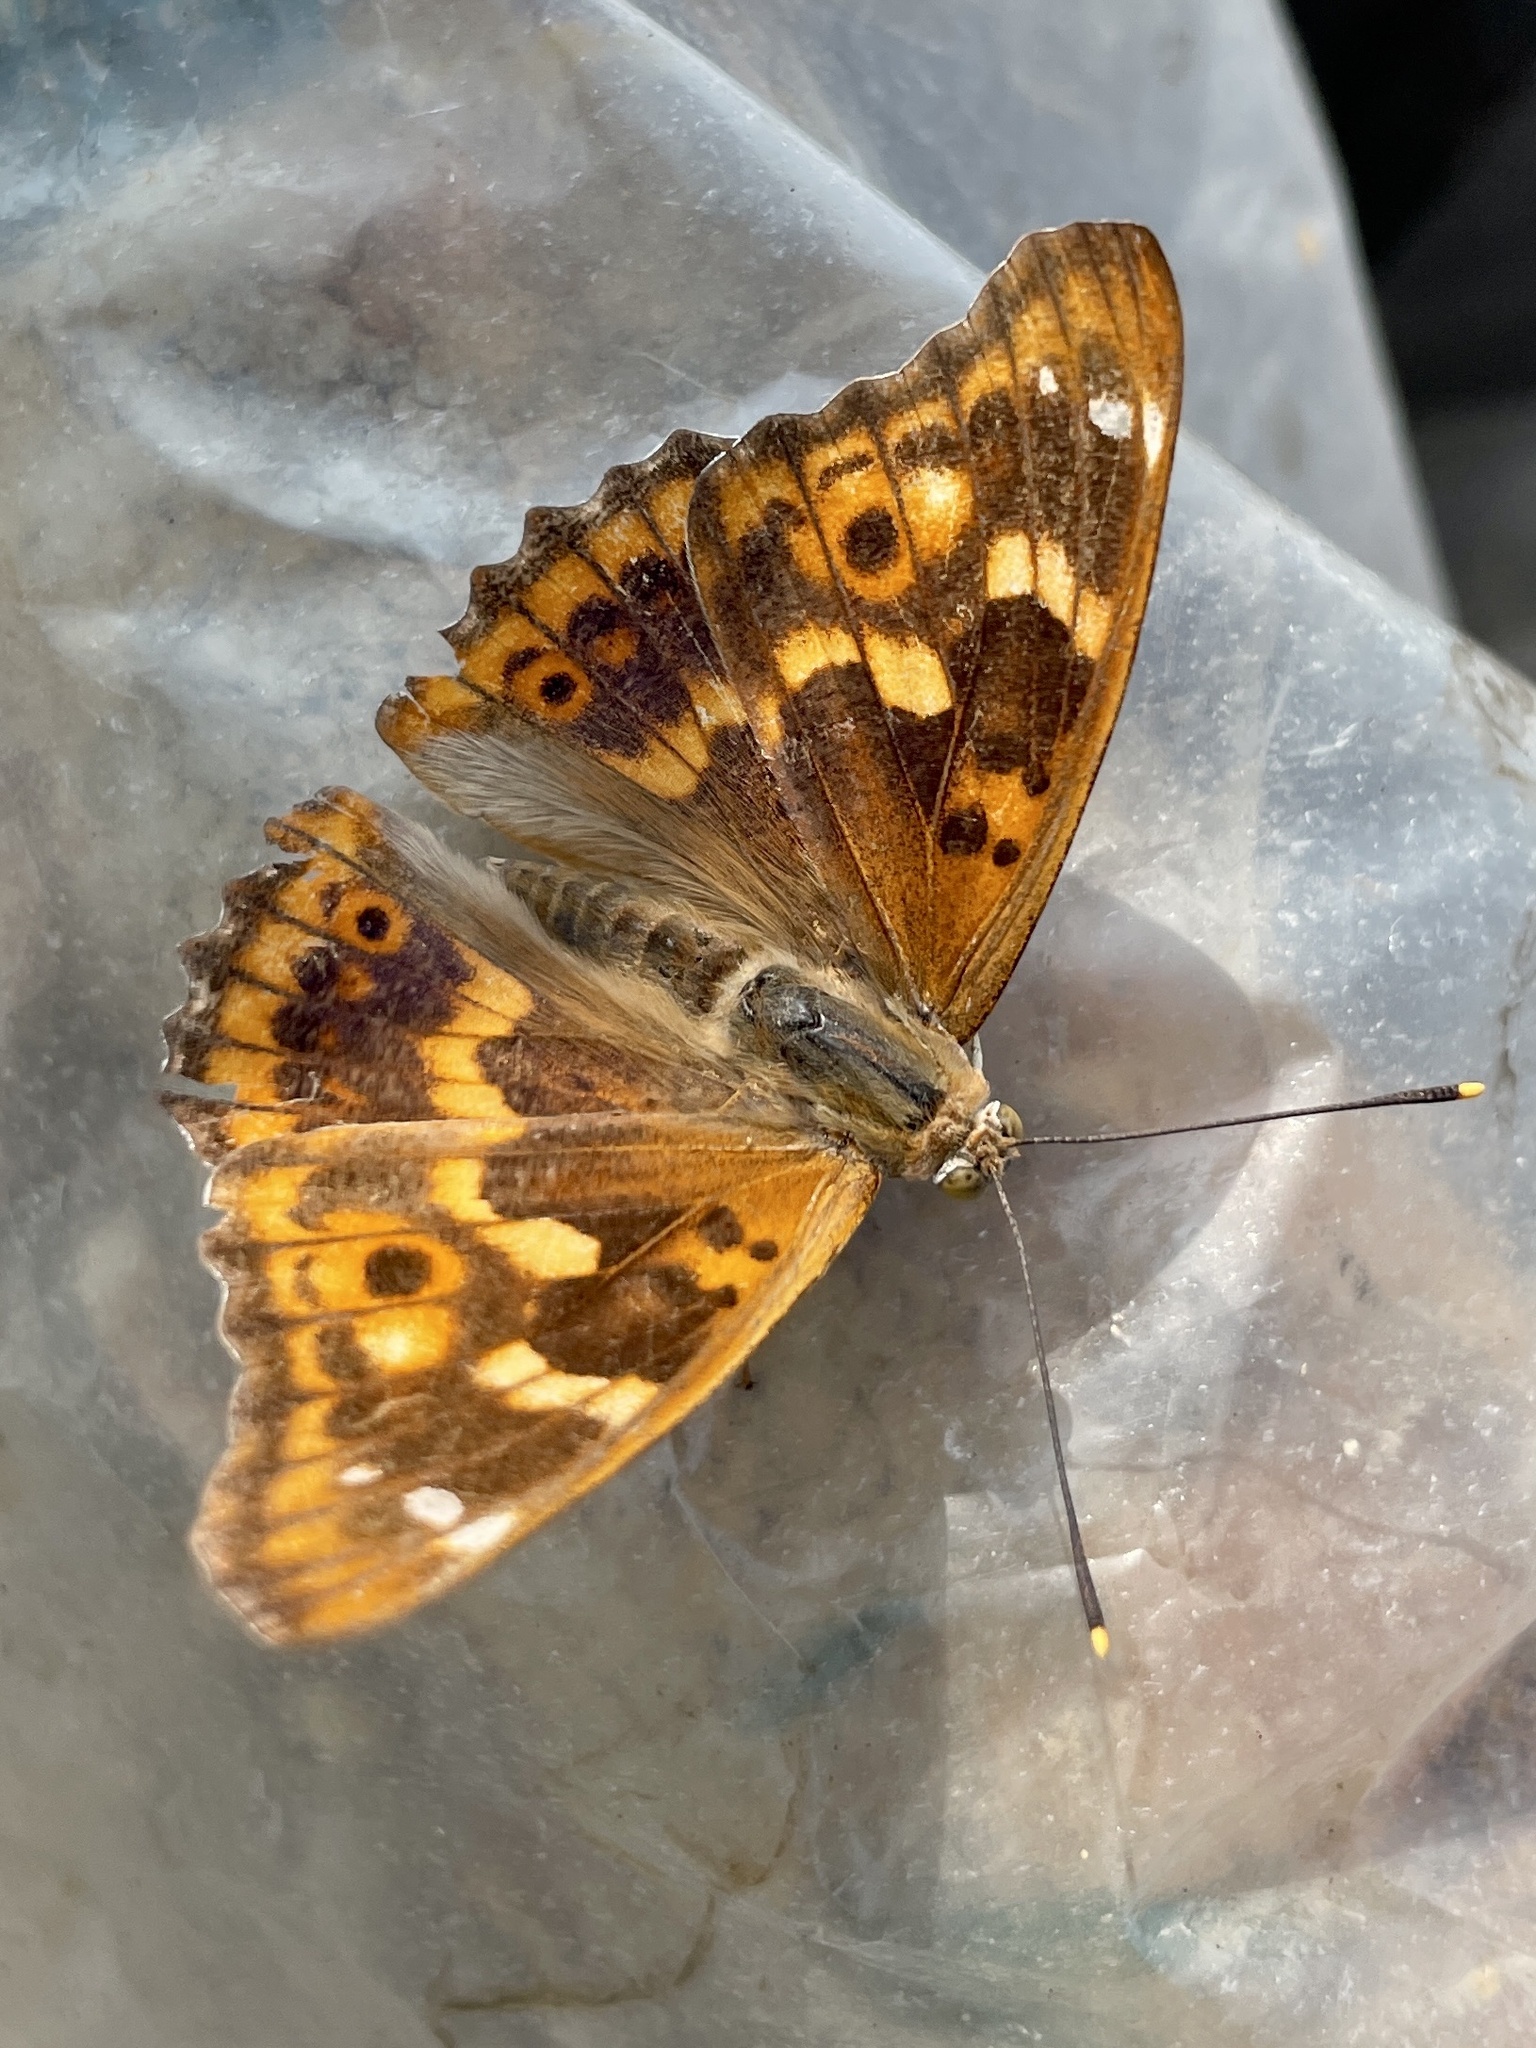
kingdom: Animalia
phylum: Arthropoda
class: Insecta
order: Lepidoptera
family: Nymphalidae
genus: Apatura
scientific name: Apatura ilia
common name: Lesser purple emperor
